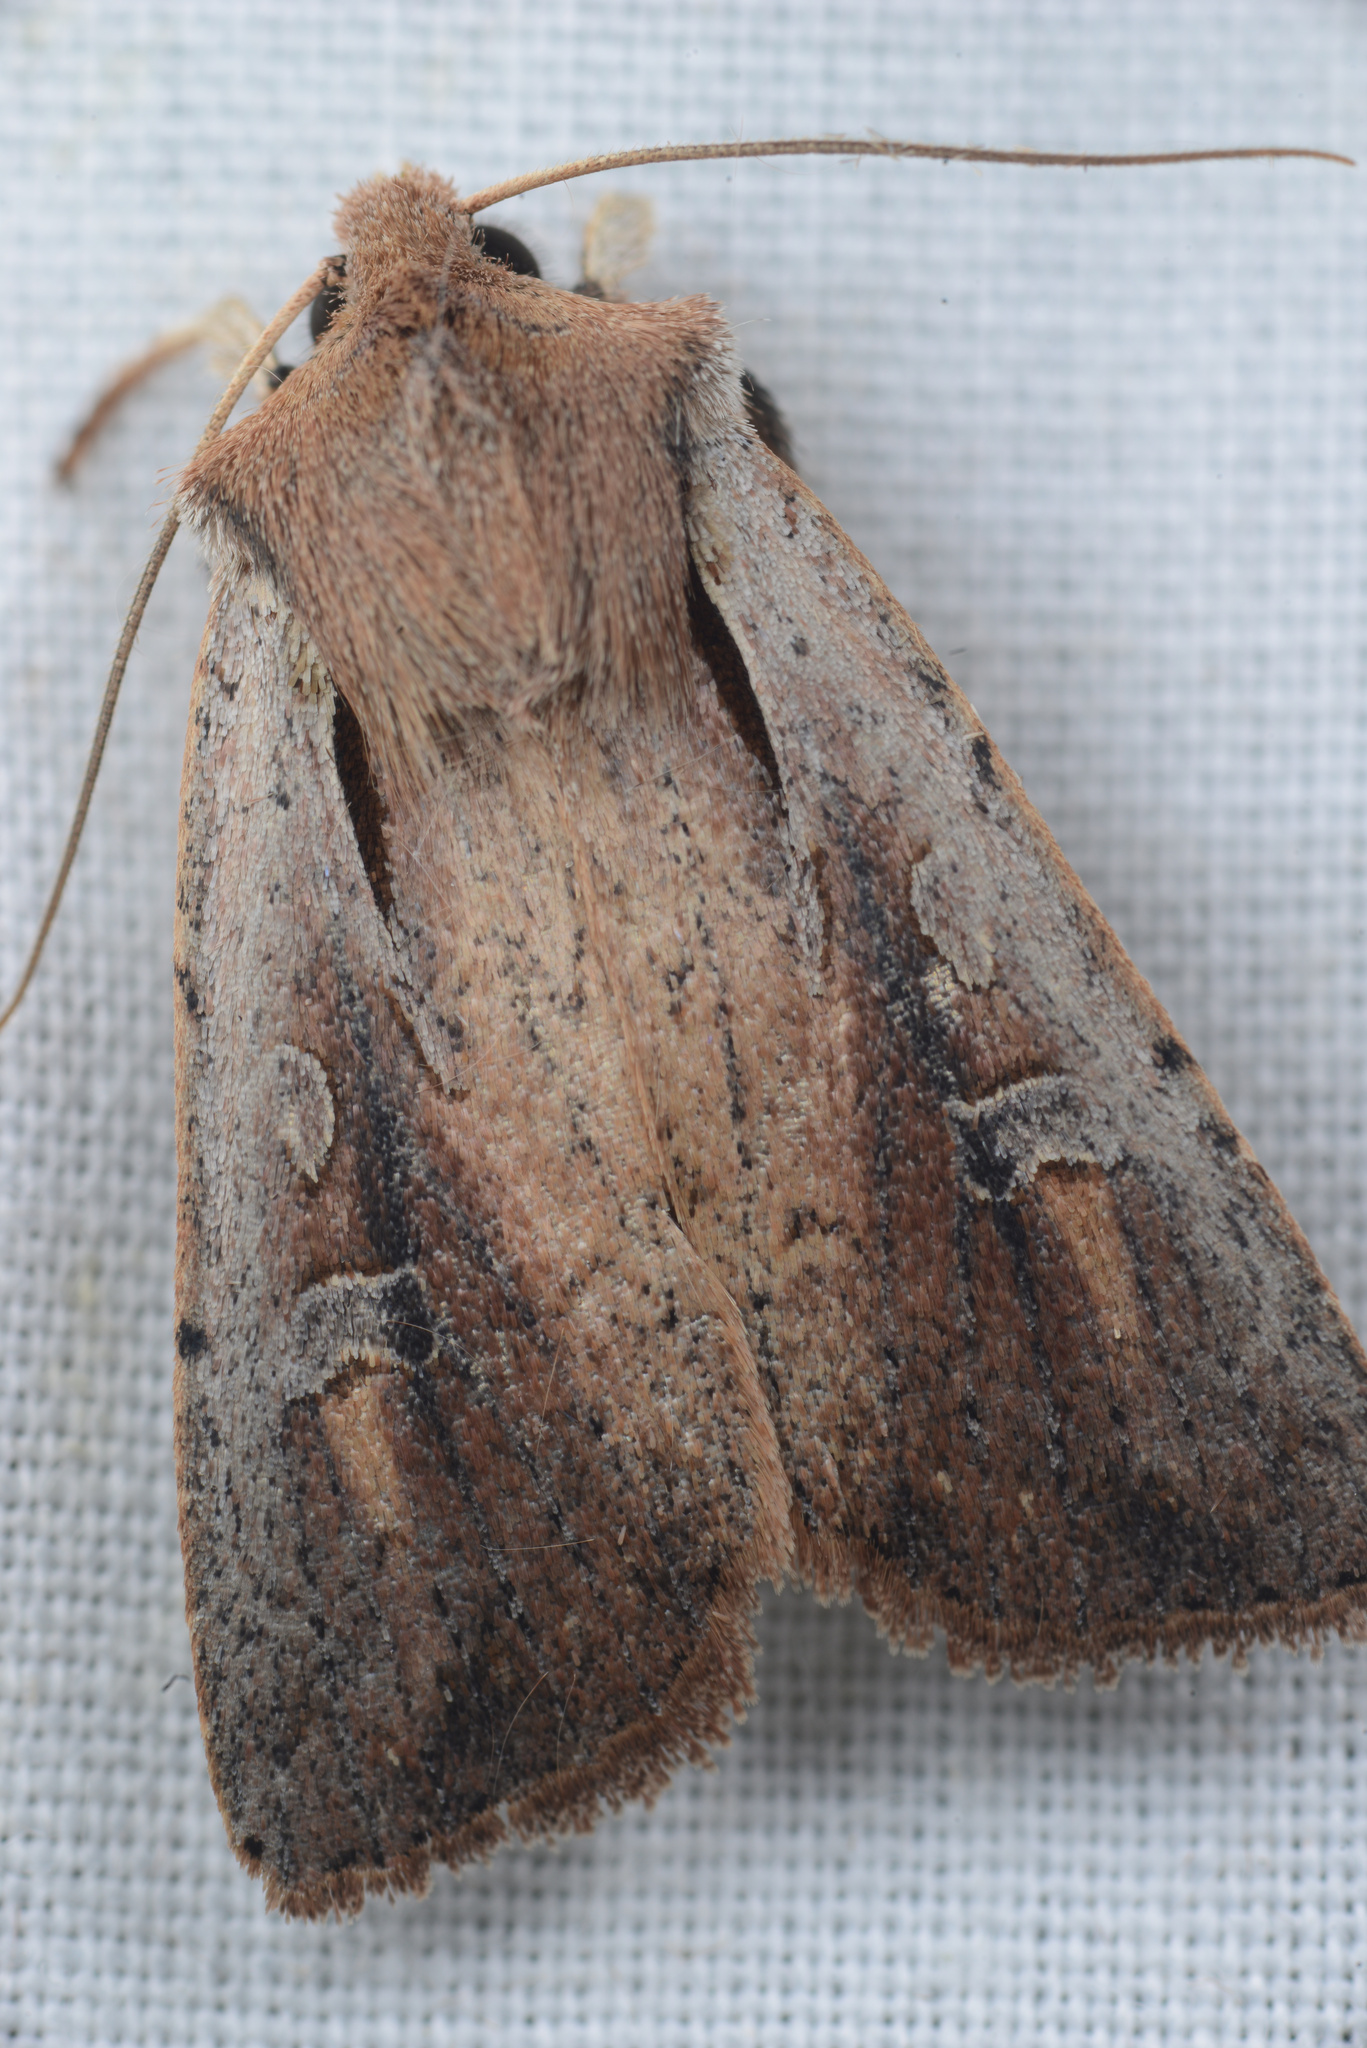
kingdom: Animalia
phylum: Arthropoda
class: Insecta
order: Lepidoptera
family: Noctuidae
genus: Ichneutica
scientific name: Ichneutica atristriga
